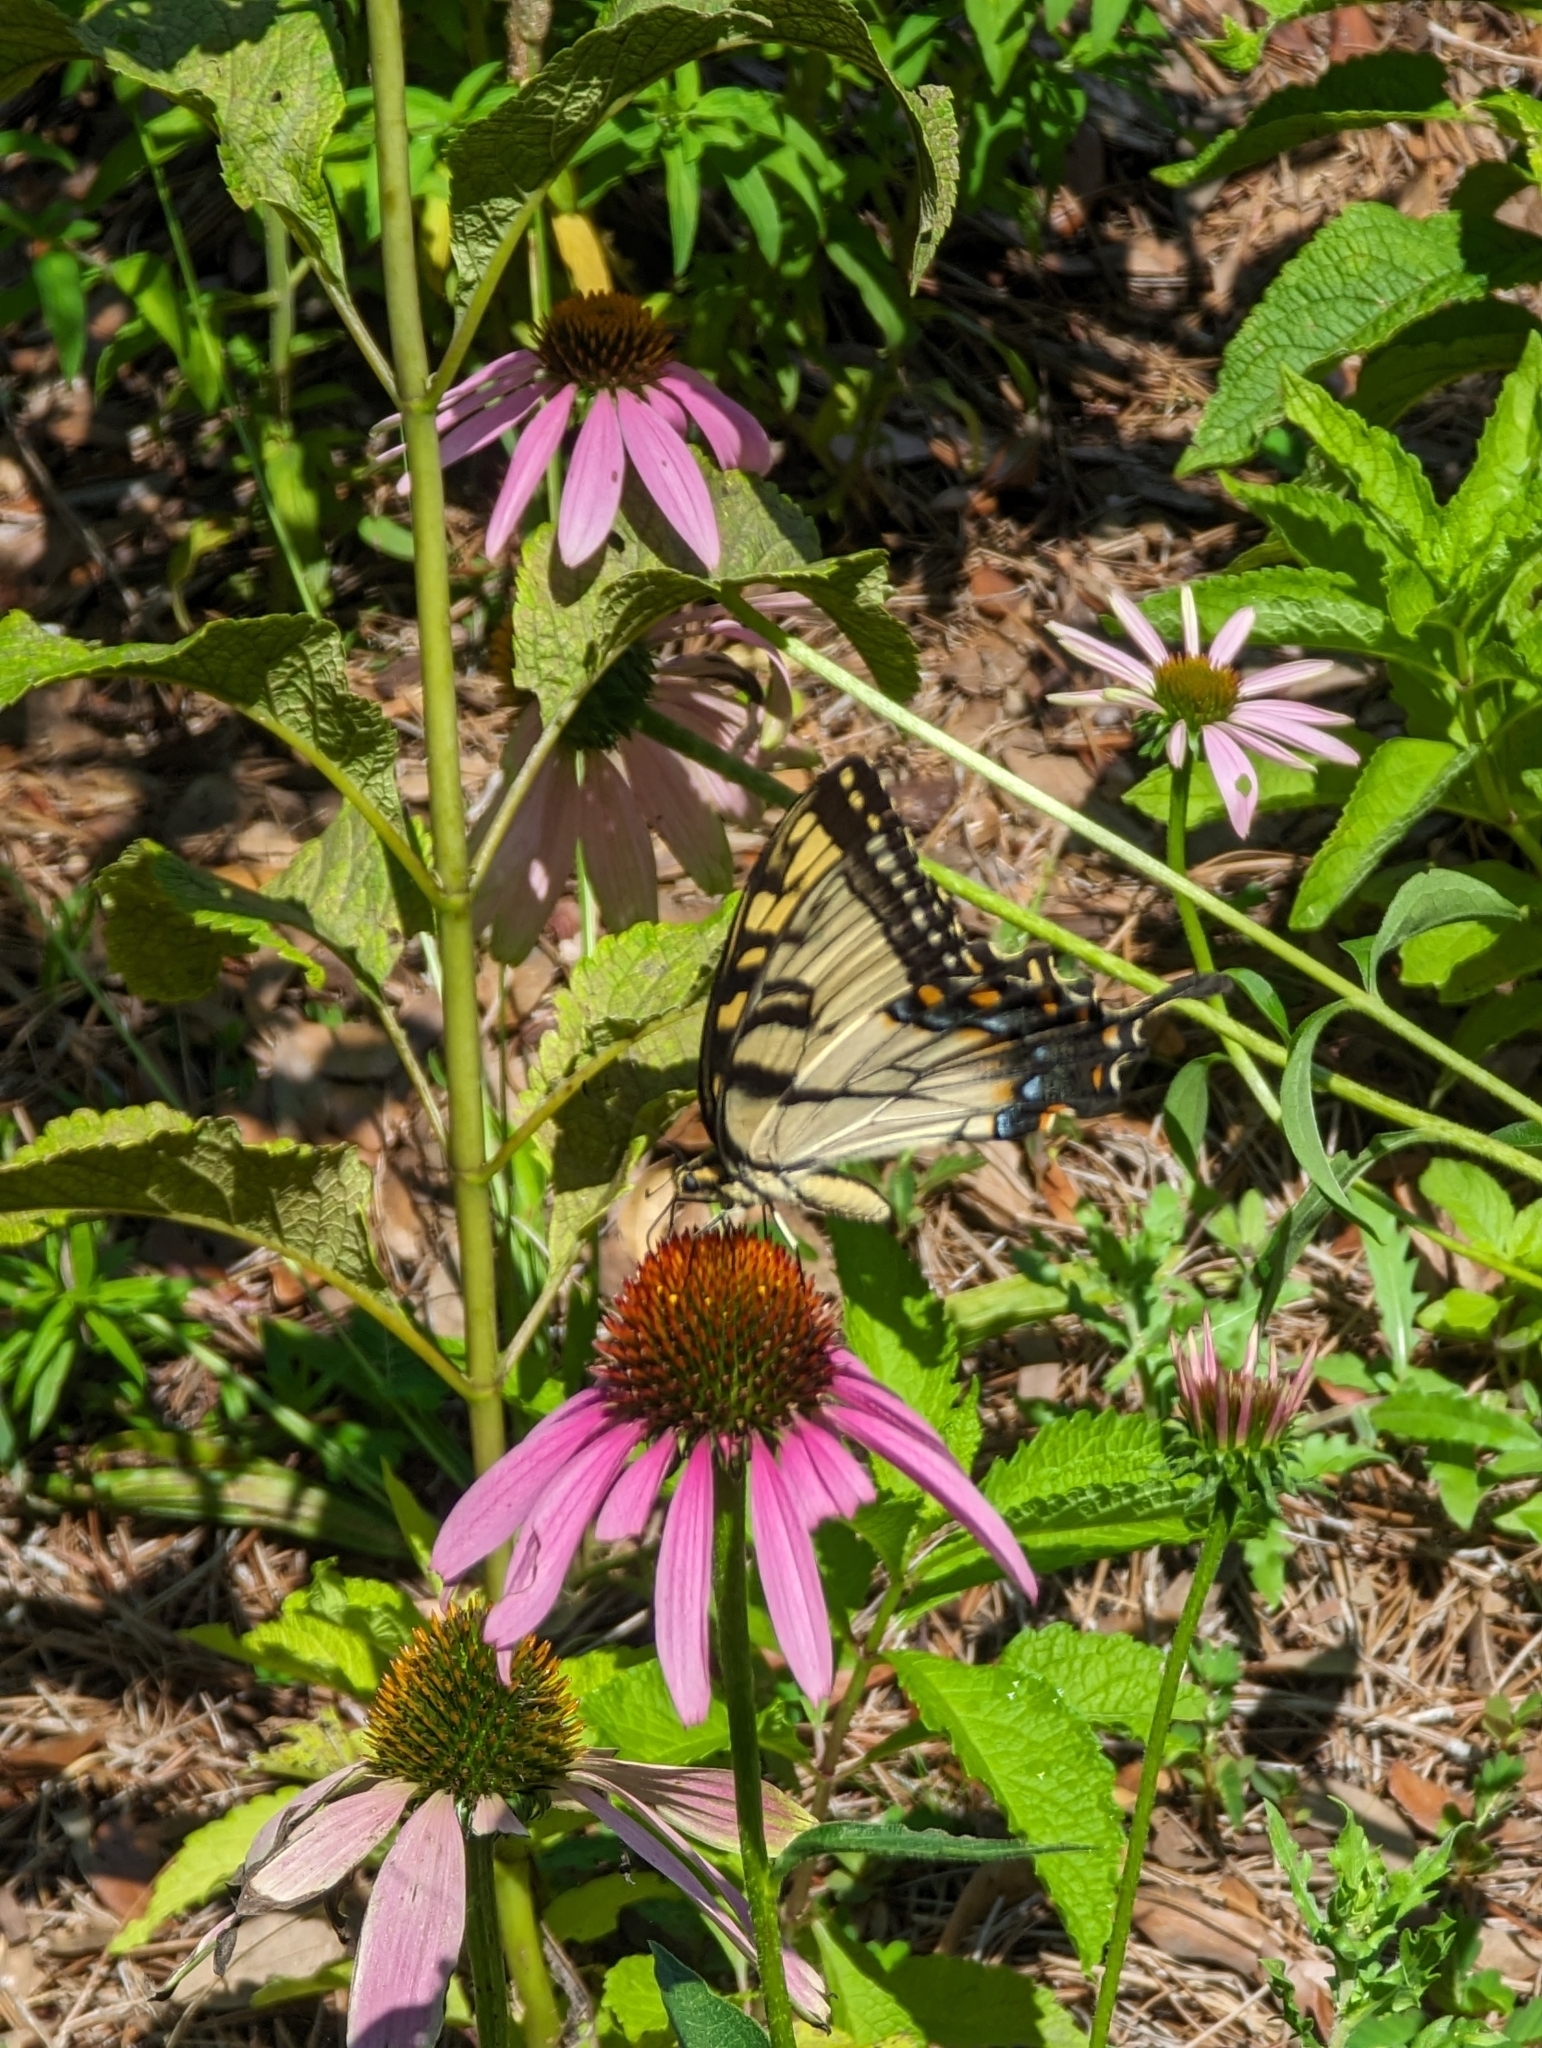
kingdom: Animalia
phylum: Arthropoda
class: Insecta
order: Lepidoptera
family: Papilionidae
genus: Papilio
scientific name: Papilio glaucus
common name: Tiger swallowtail
